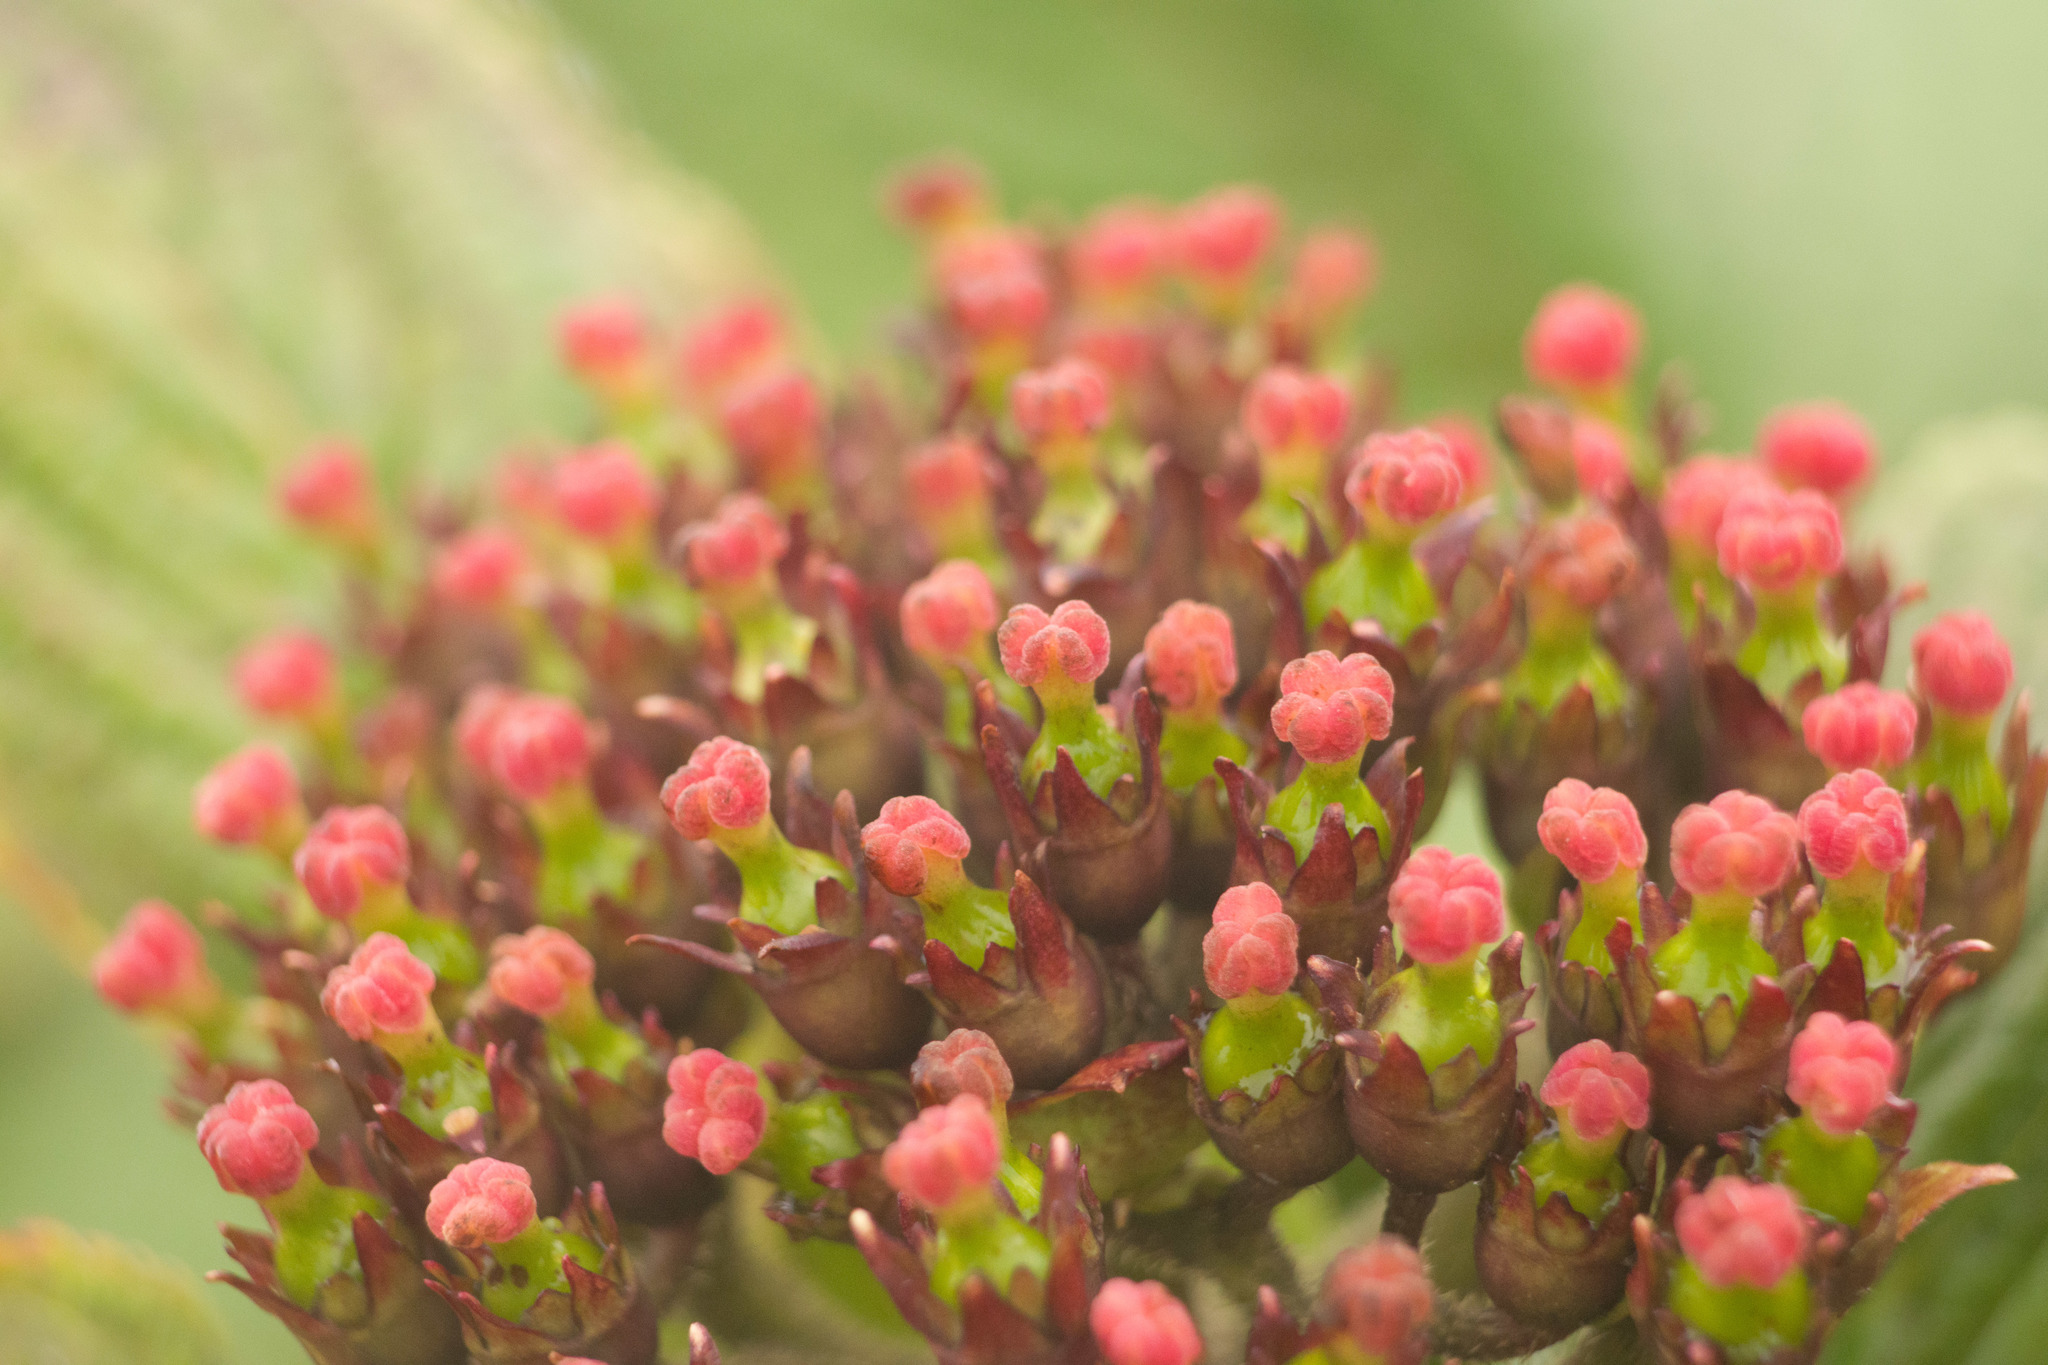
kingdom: Plantae
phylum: Tracheophyta
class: Magnoliopsida
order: Cornales
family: Hydrangeaceae
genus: Hydrangea
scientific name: Hydrangea arguta
